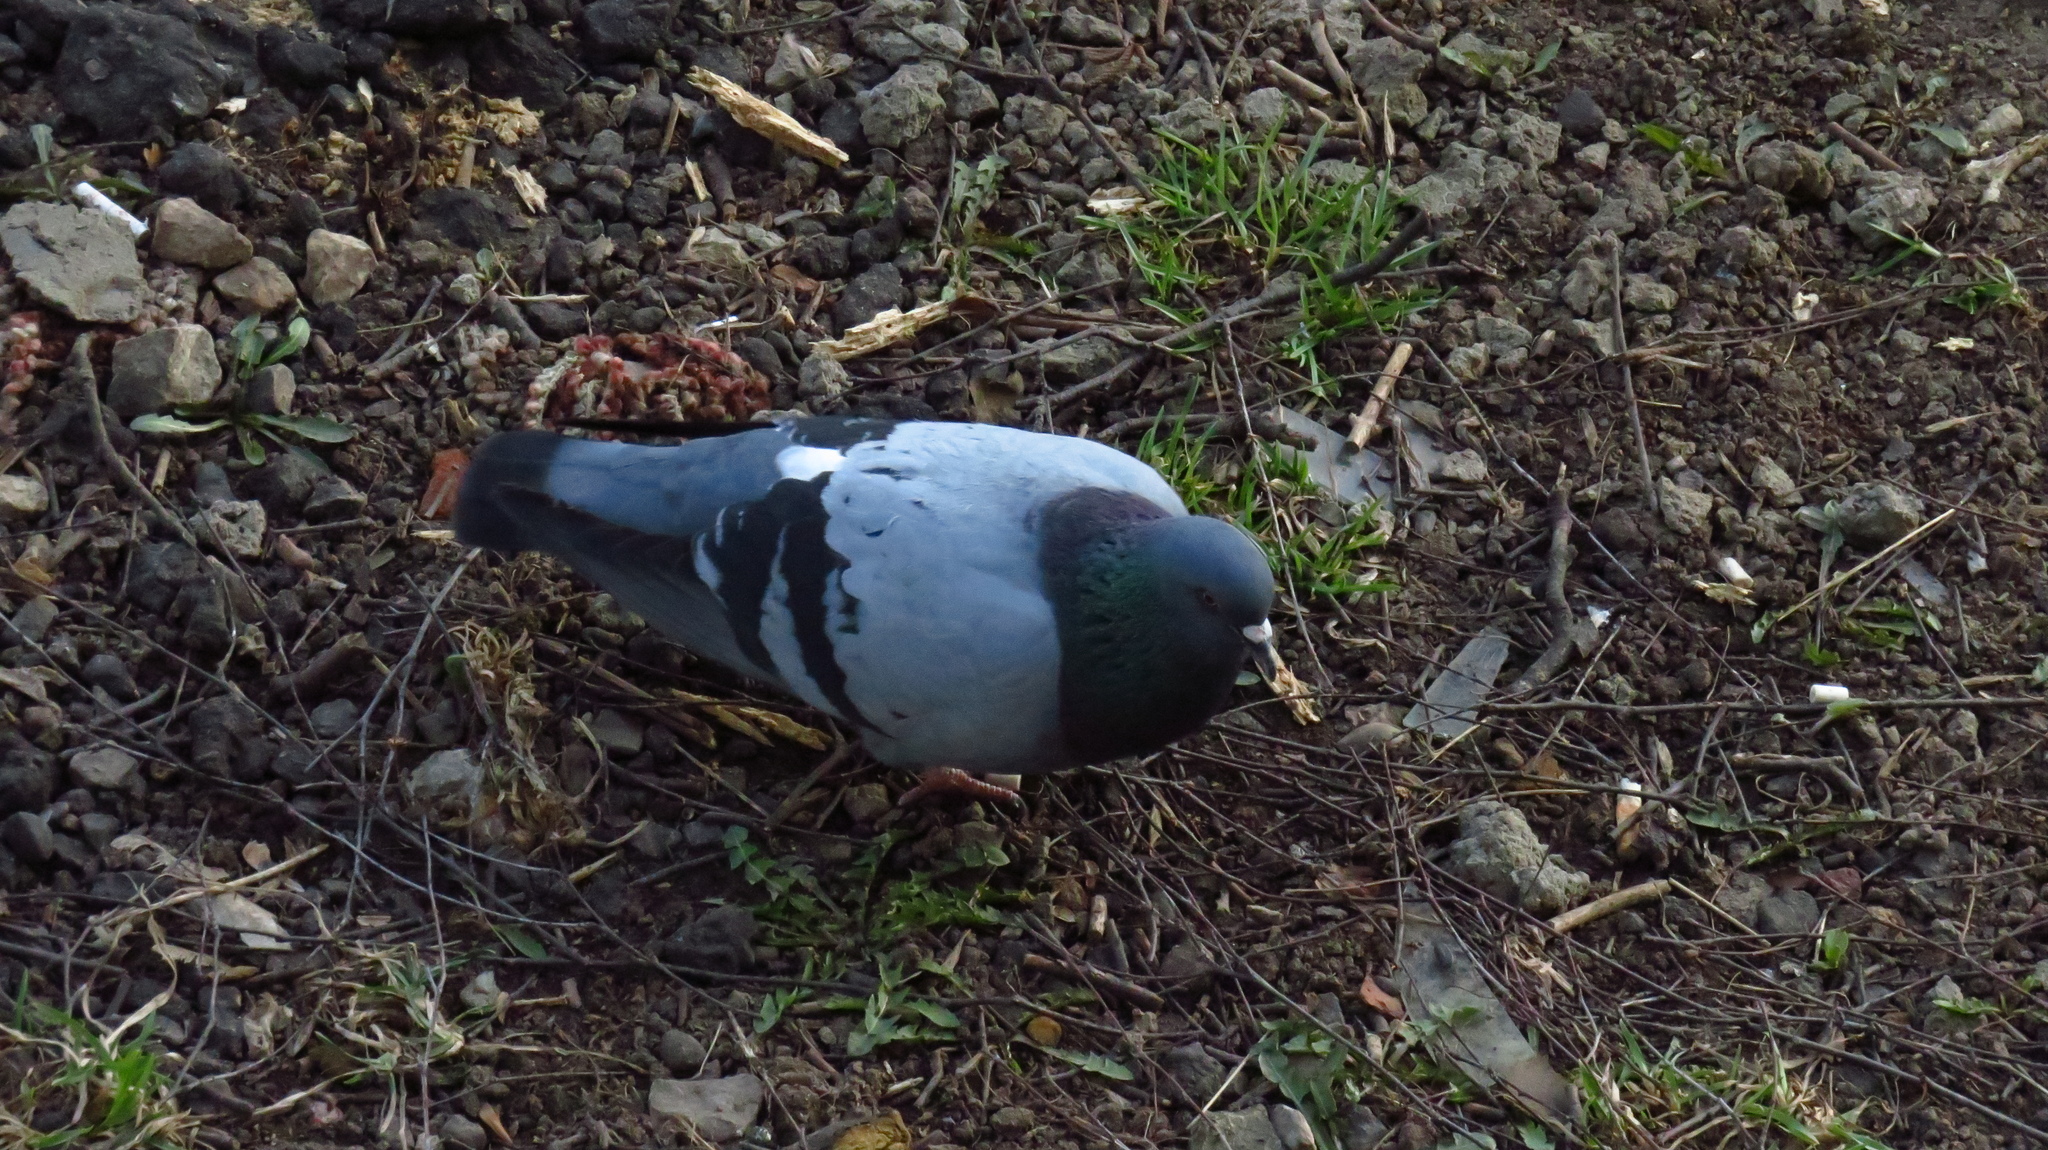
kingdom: Animalia
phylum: Chordata
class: Aves
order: Columbiformes
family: Columbidae
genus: Columba
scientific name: Columba livia
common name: Rock pigeon
